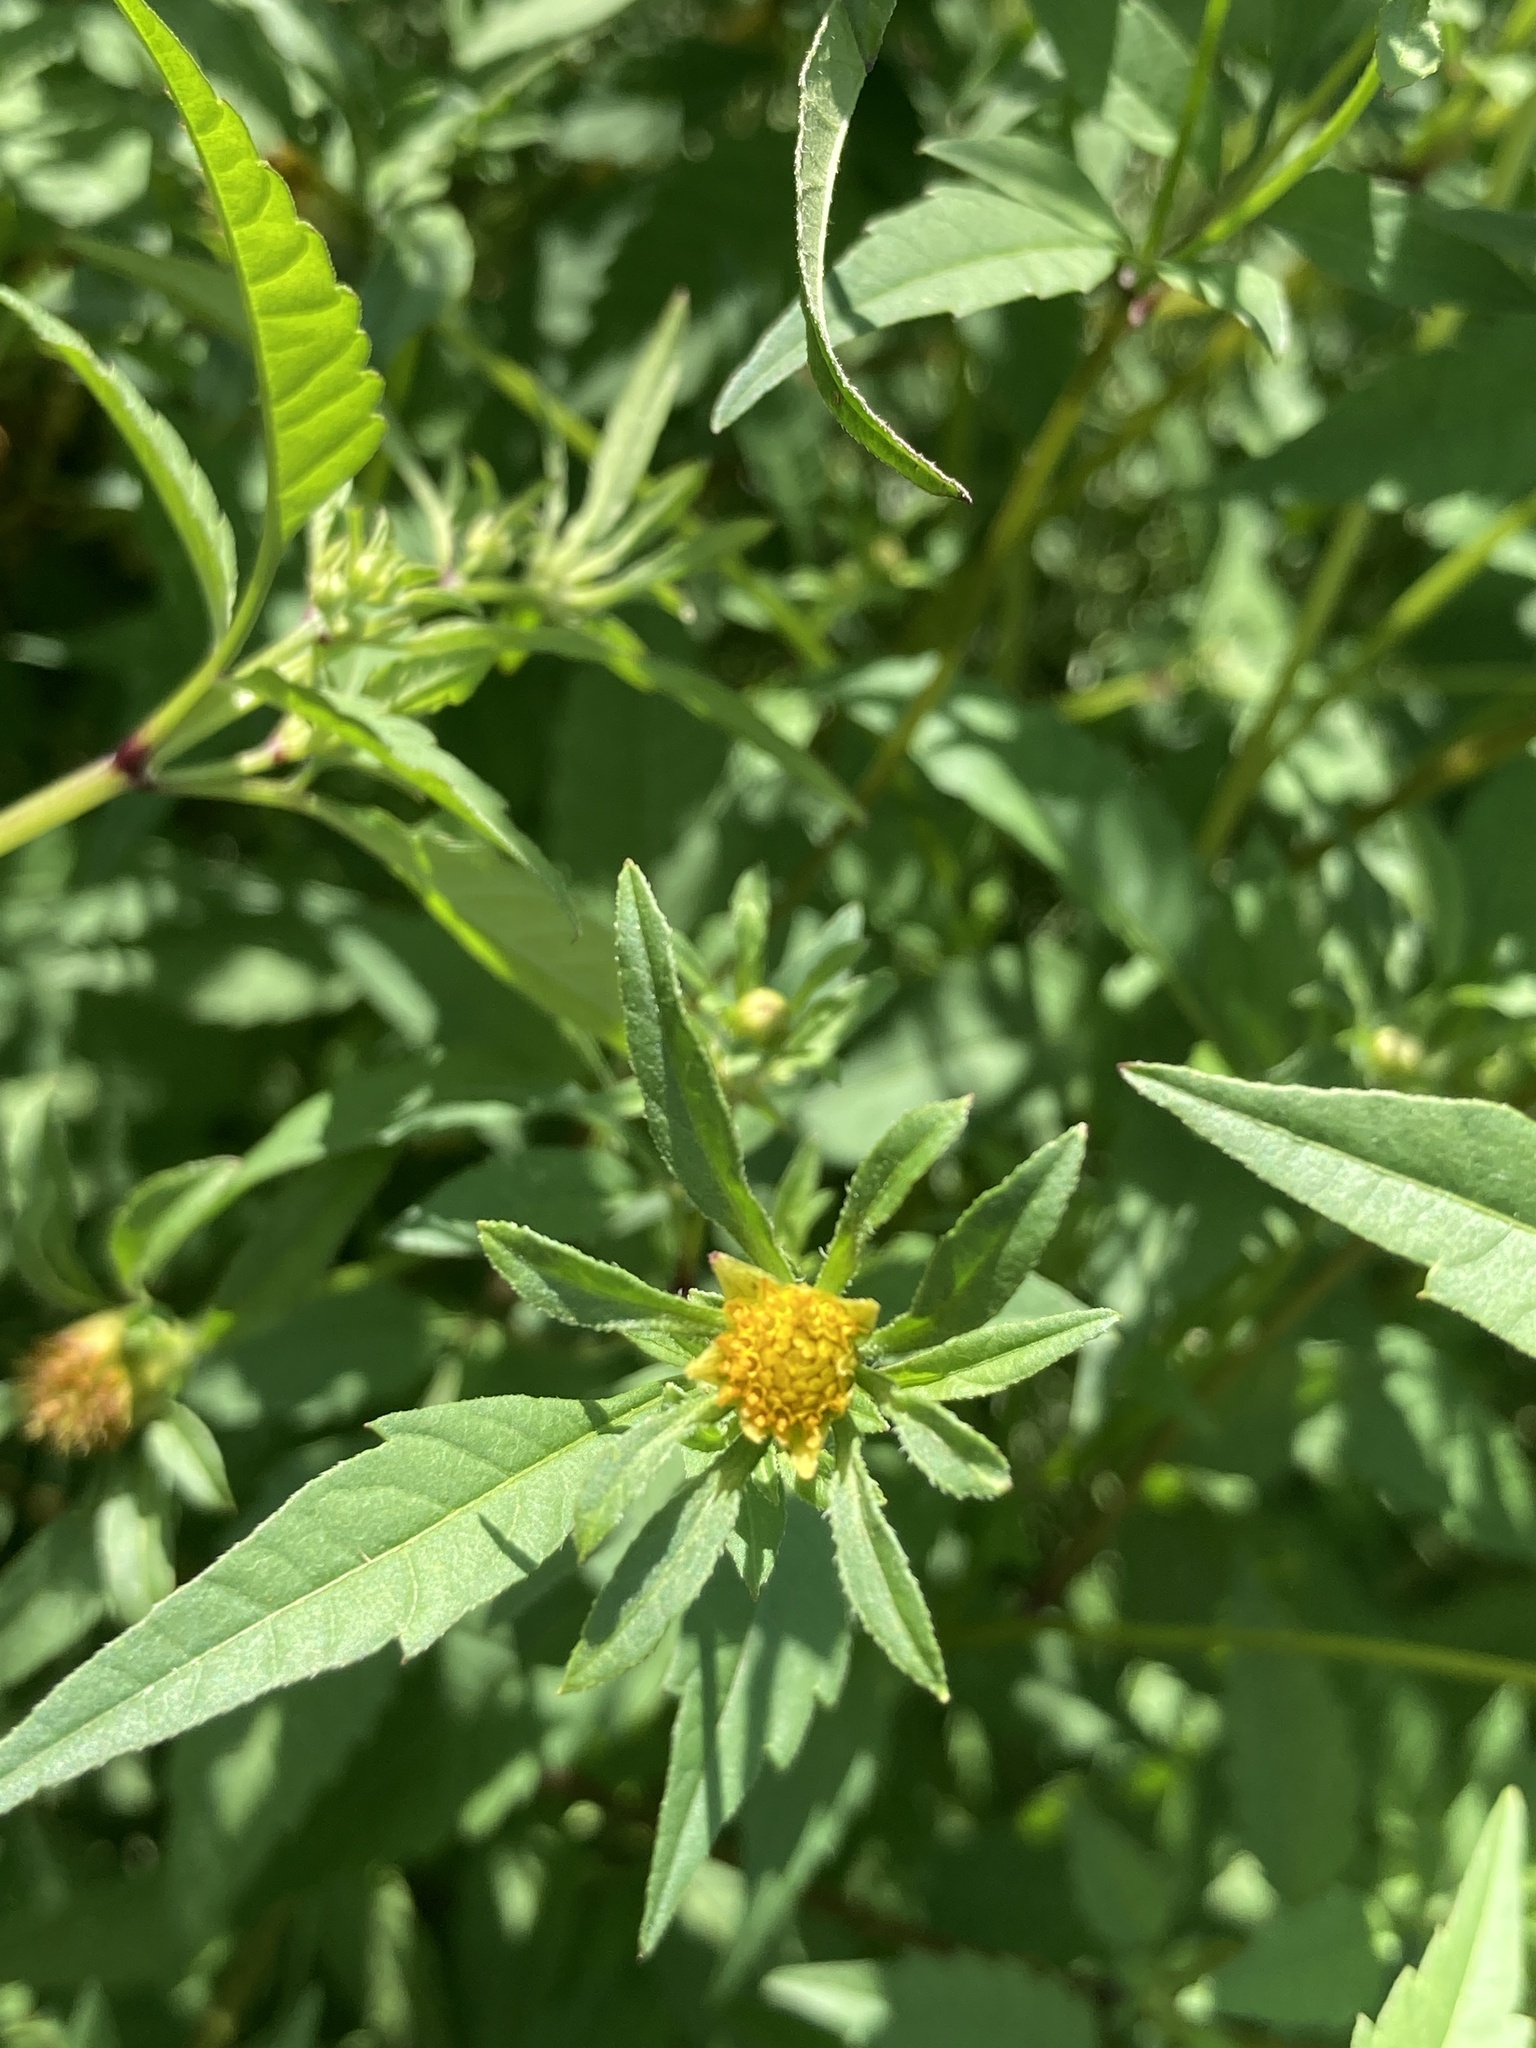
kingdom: Plantae
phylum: Tracheophyta
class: Magnoliopsida
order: Asterales
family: Asteraceae
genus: Bidens
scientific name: Bidens frondosa
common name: Beggarticks
